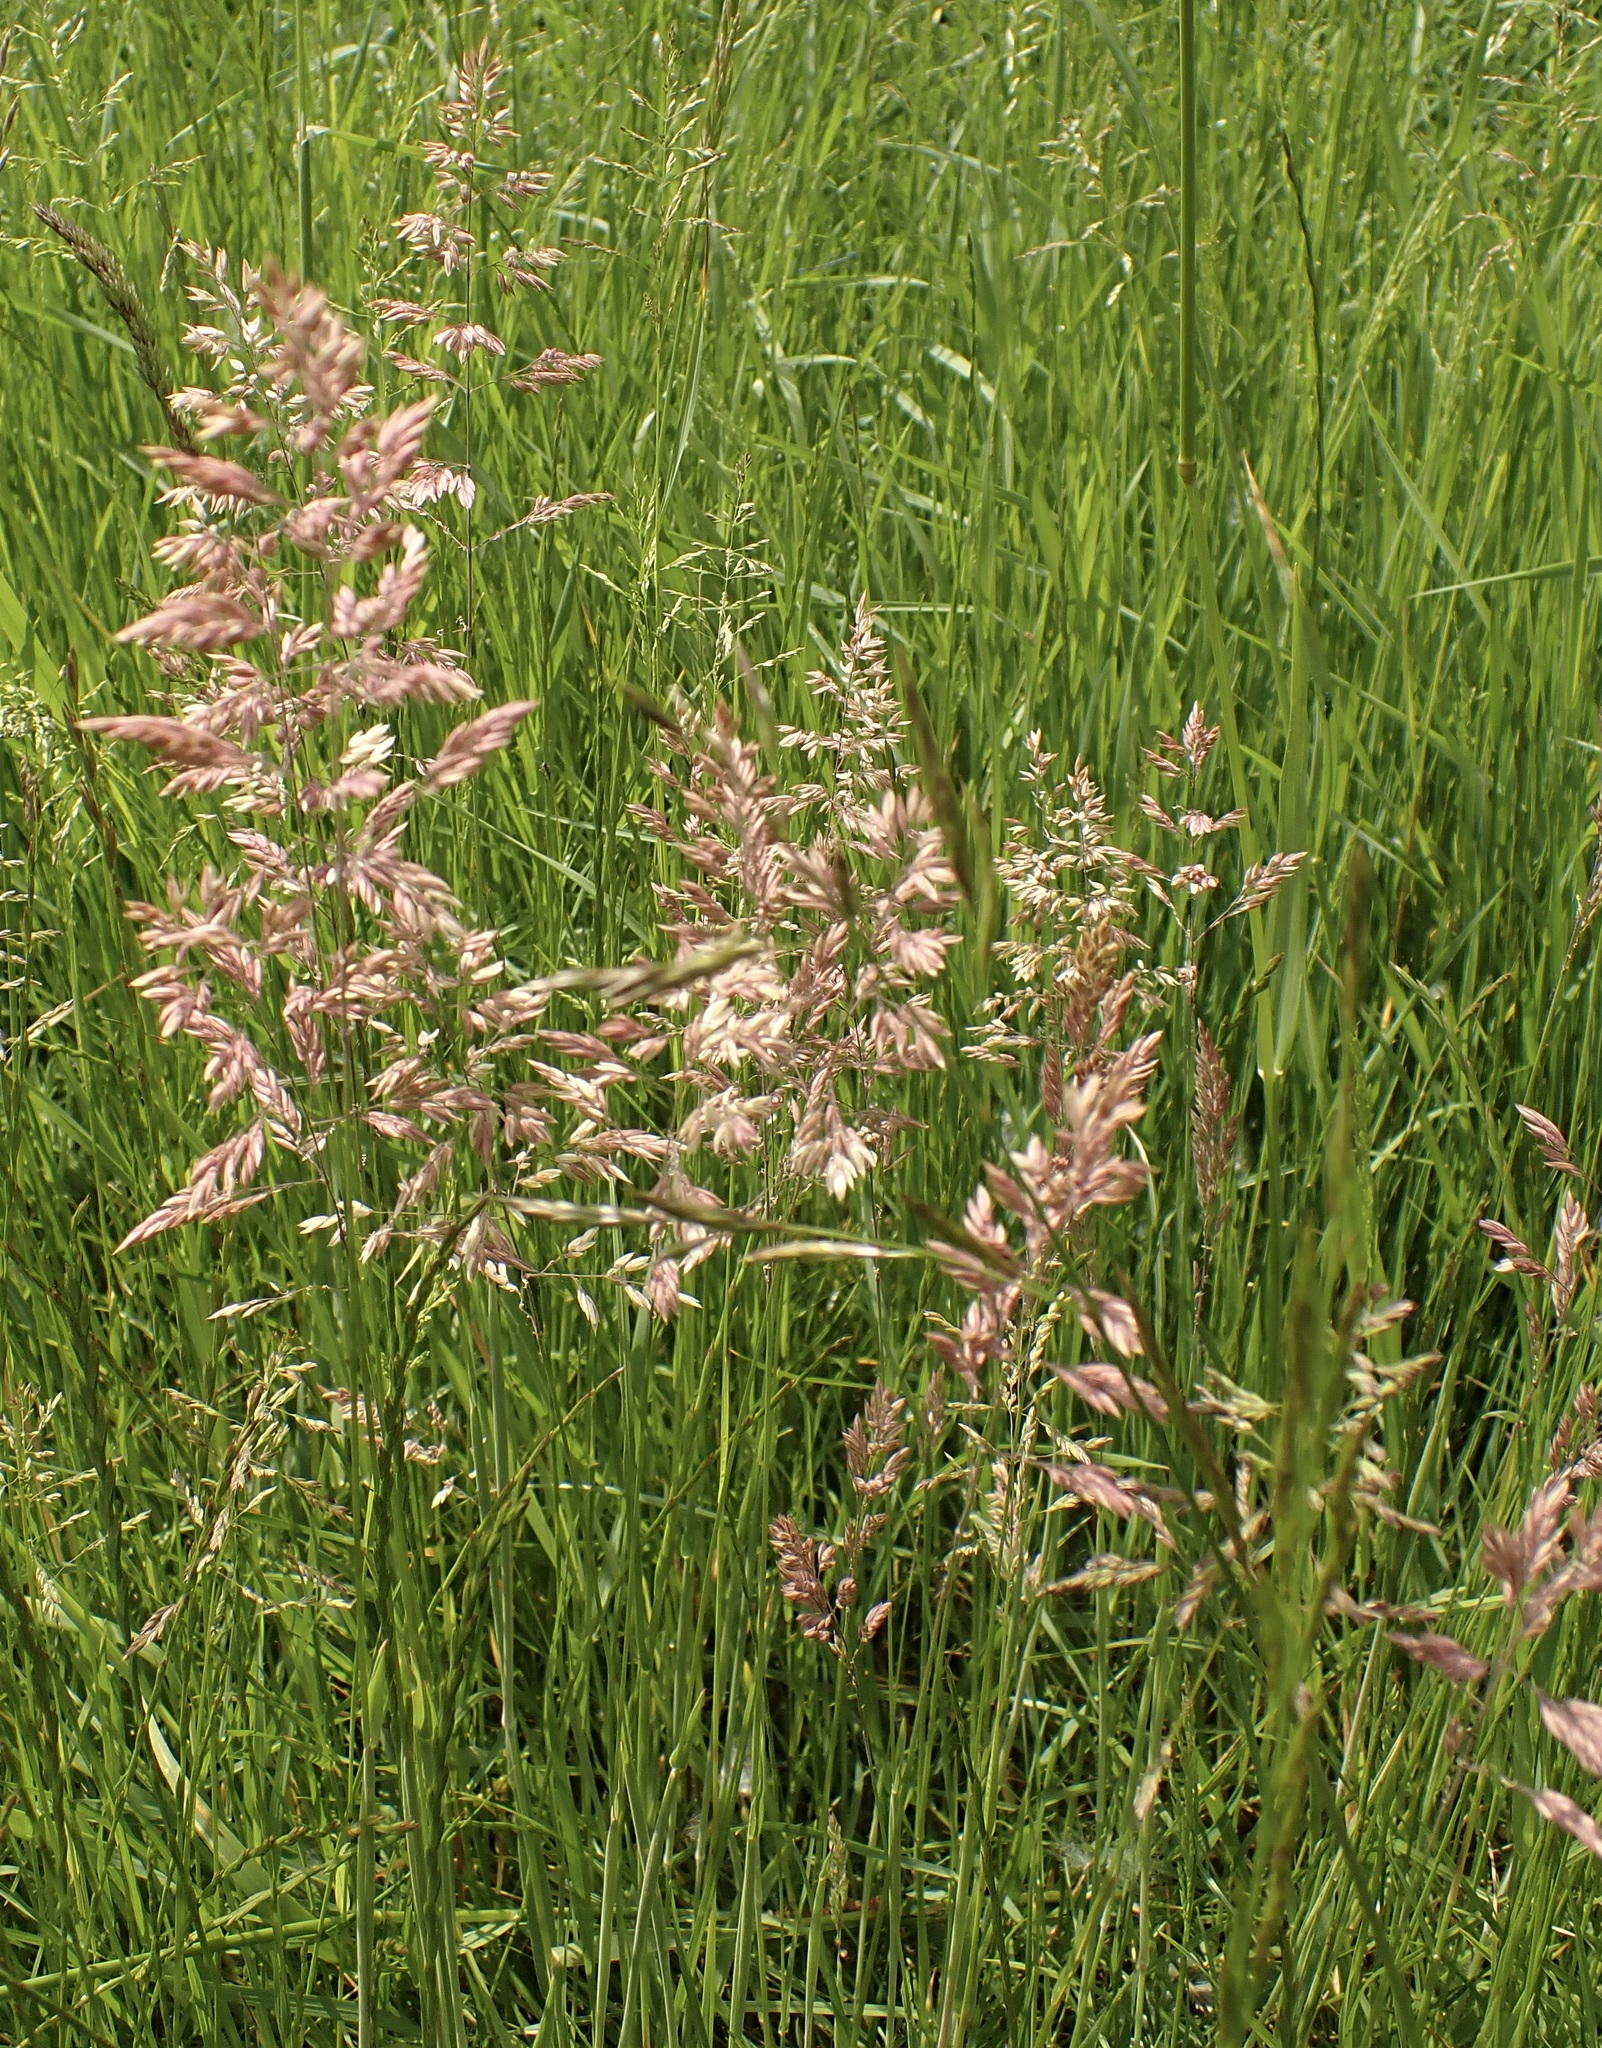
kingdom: Plantae
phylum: Tracheophyta
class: Liliopsida
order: Poales
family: Poaceae
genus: Holcus
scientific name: Holcus lanatus
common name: Yorkshire-fog
